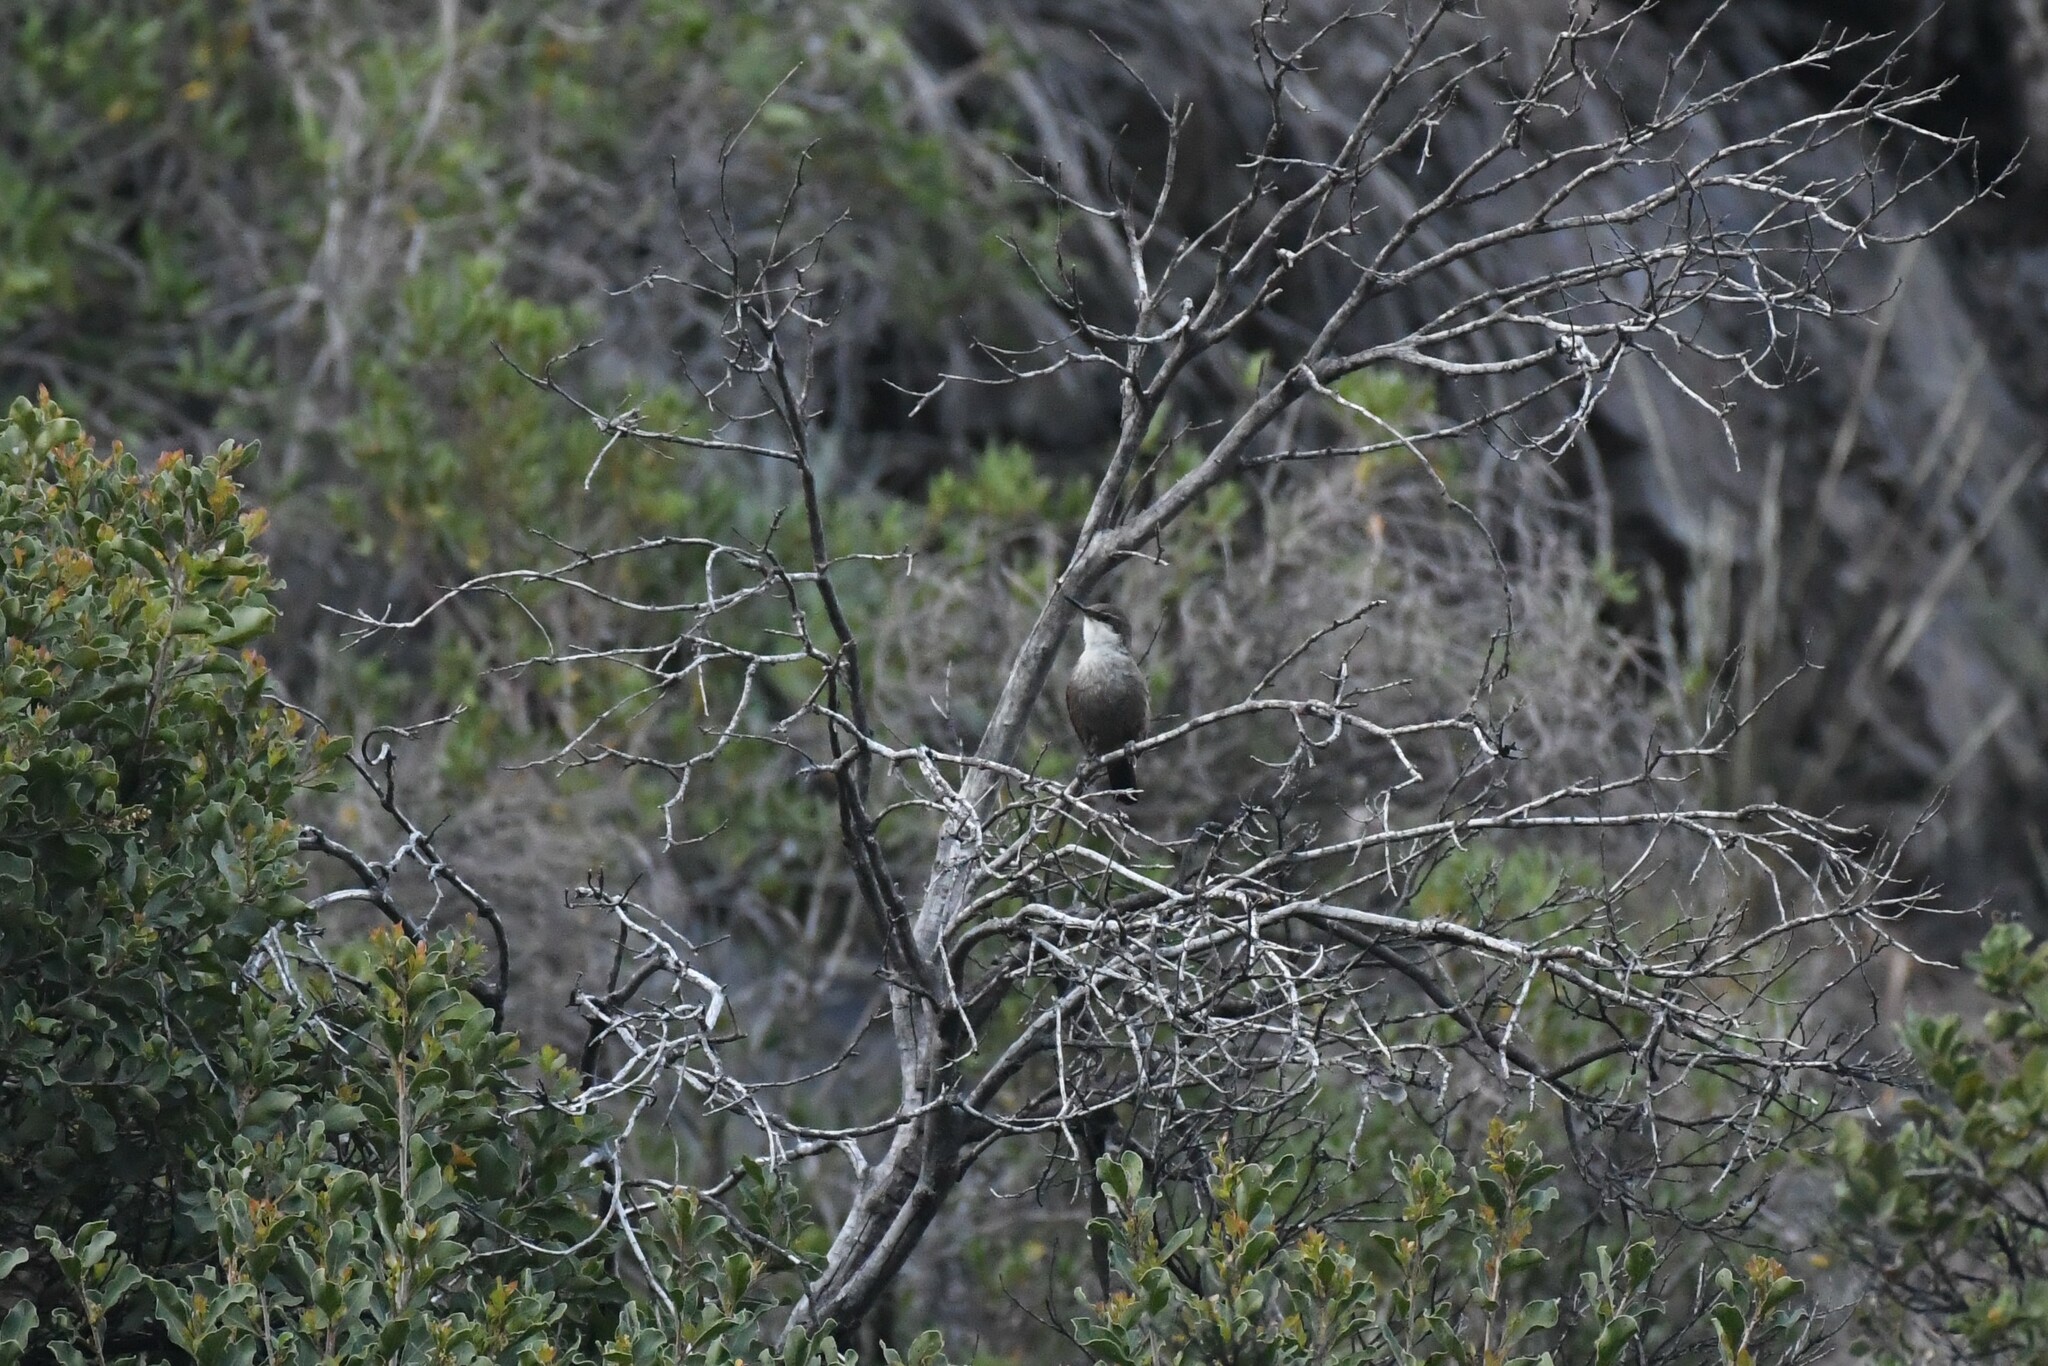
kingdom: Animalia
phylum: Chordata
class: Aves
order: Passeriformes
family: Furnariidae
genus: Chilia
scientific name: Chilia melanura
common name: Crag chilia
